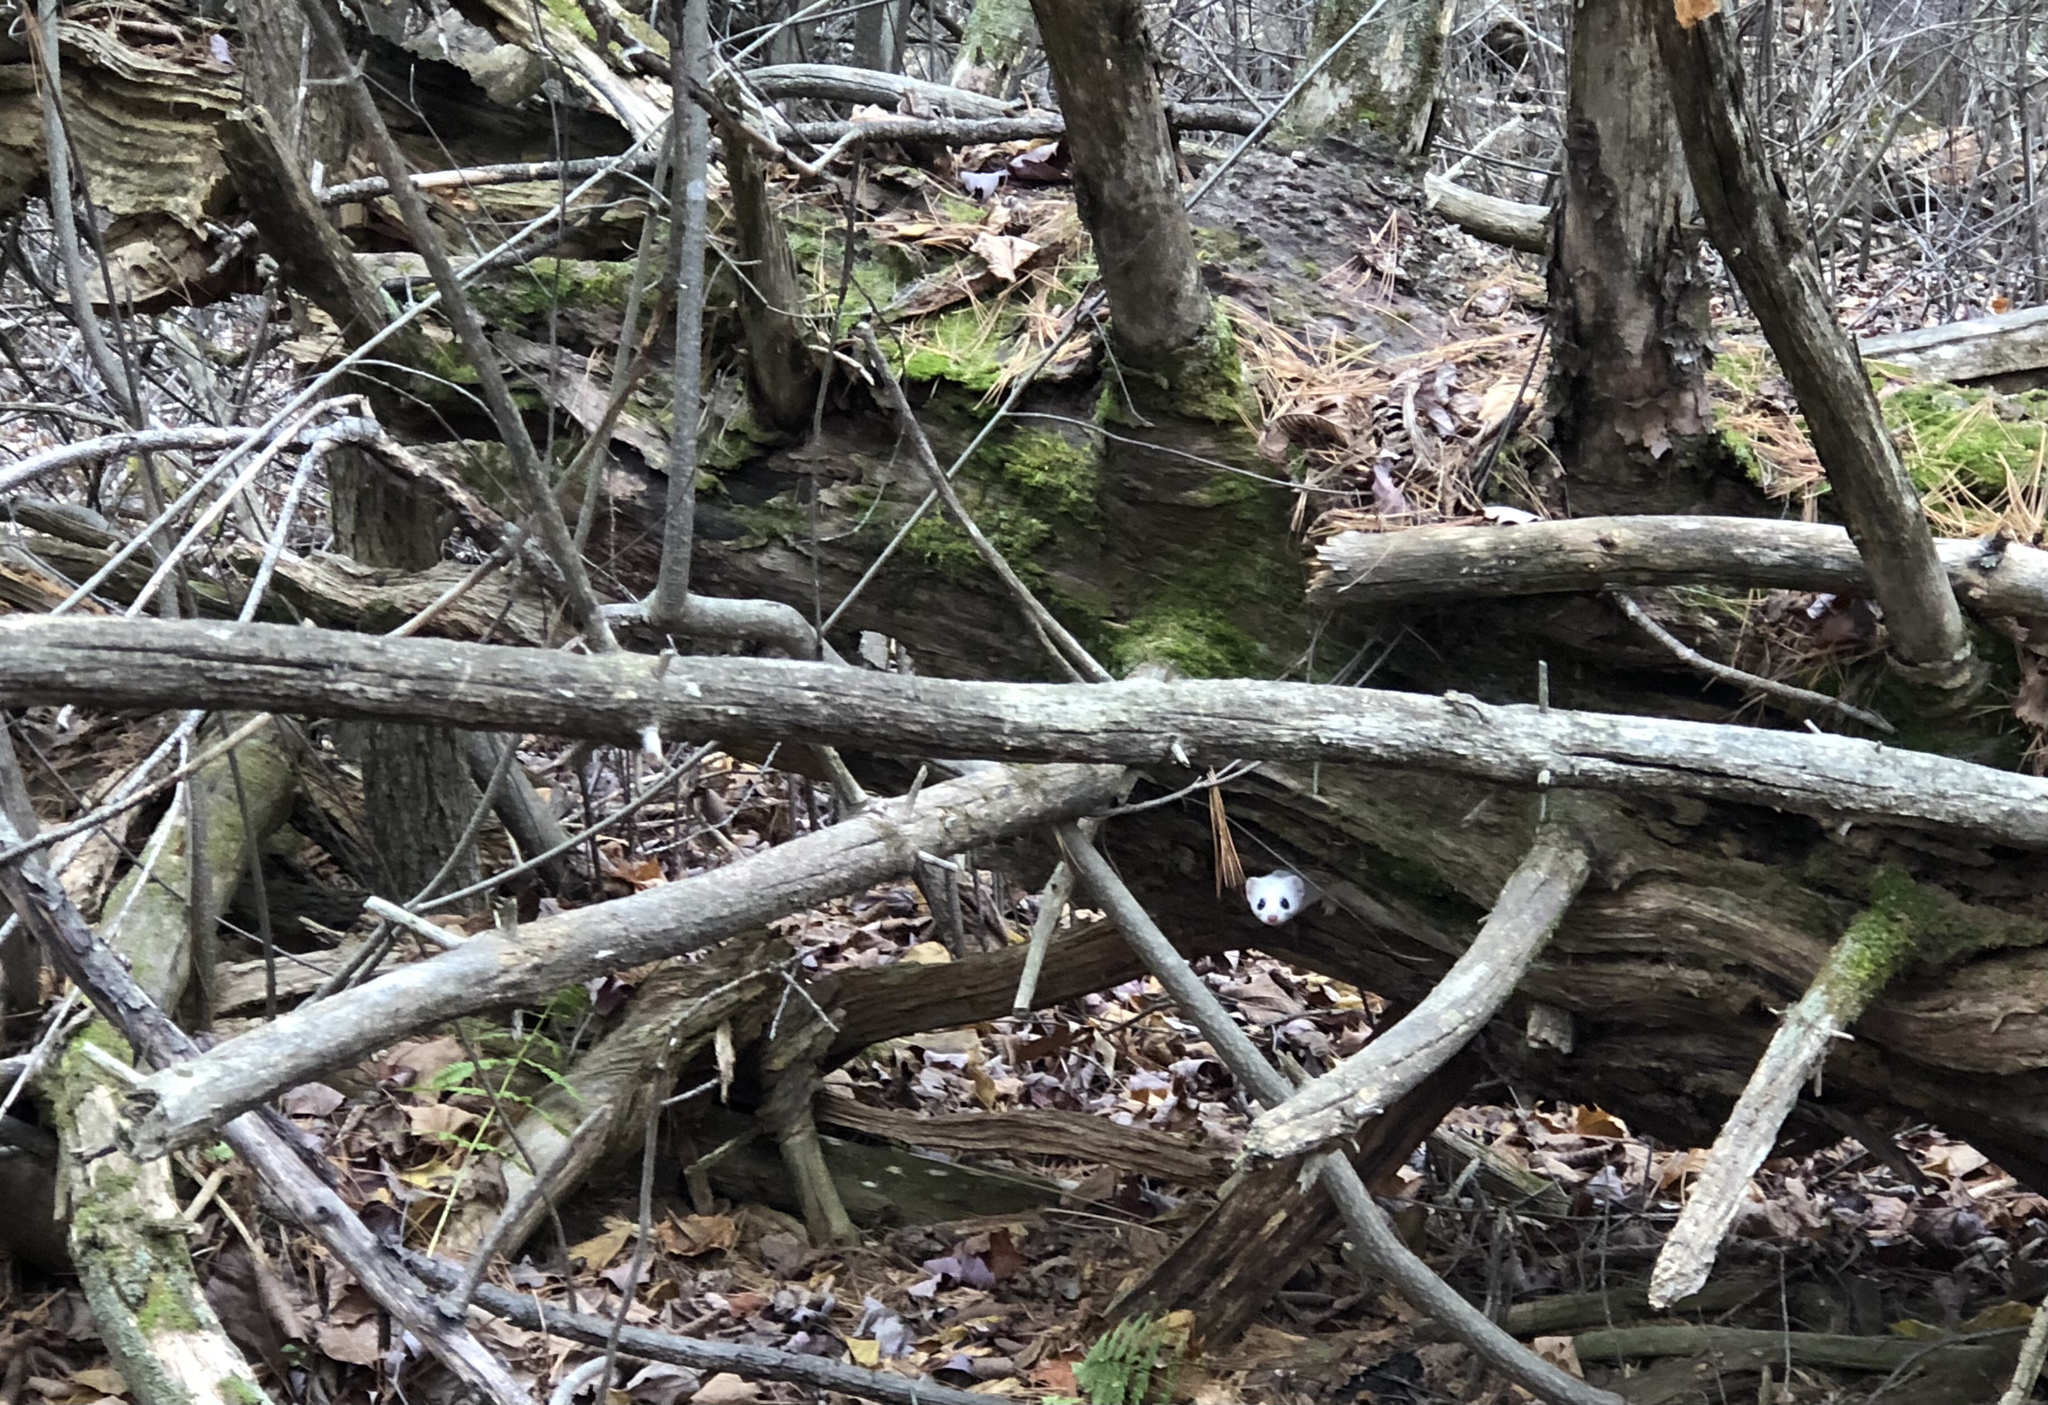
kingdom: Animalia
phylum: Chordata
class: Mammalia
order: Carnivora
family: Mustelidae
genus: Mustela
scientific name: Mustela erminea
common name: Stoat
